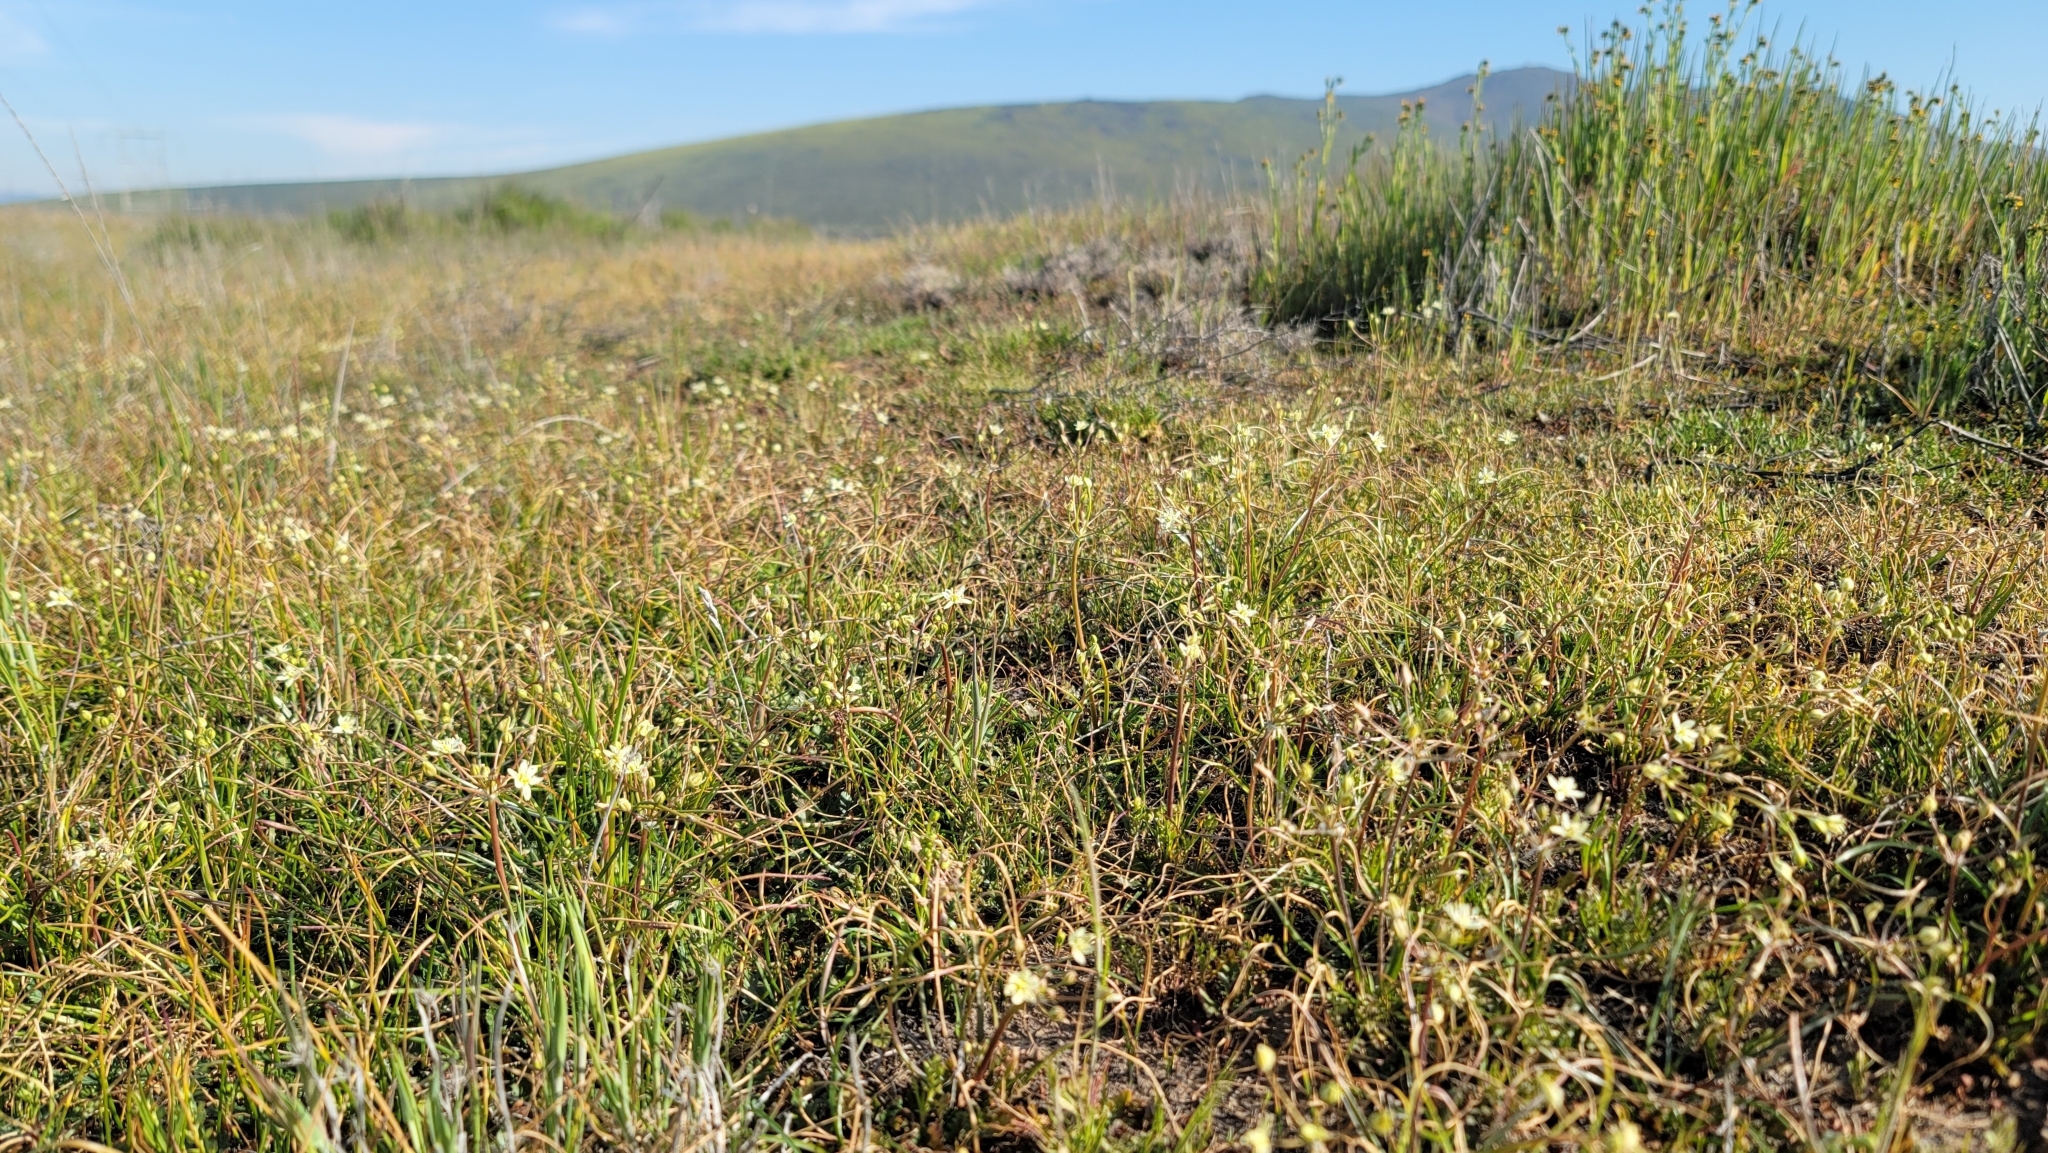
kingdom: Plantae
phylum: Tracheophyta
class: Liliopsida
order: Asparagales
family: Asparagaceae
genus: Muilla
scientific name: Muilla maritima
